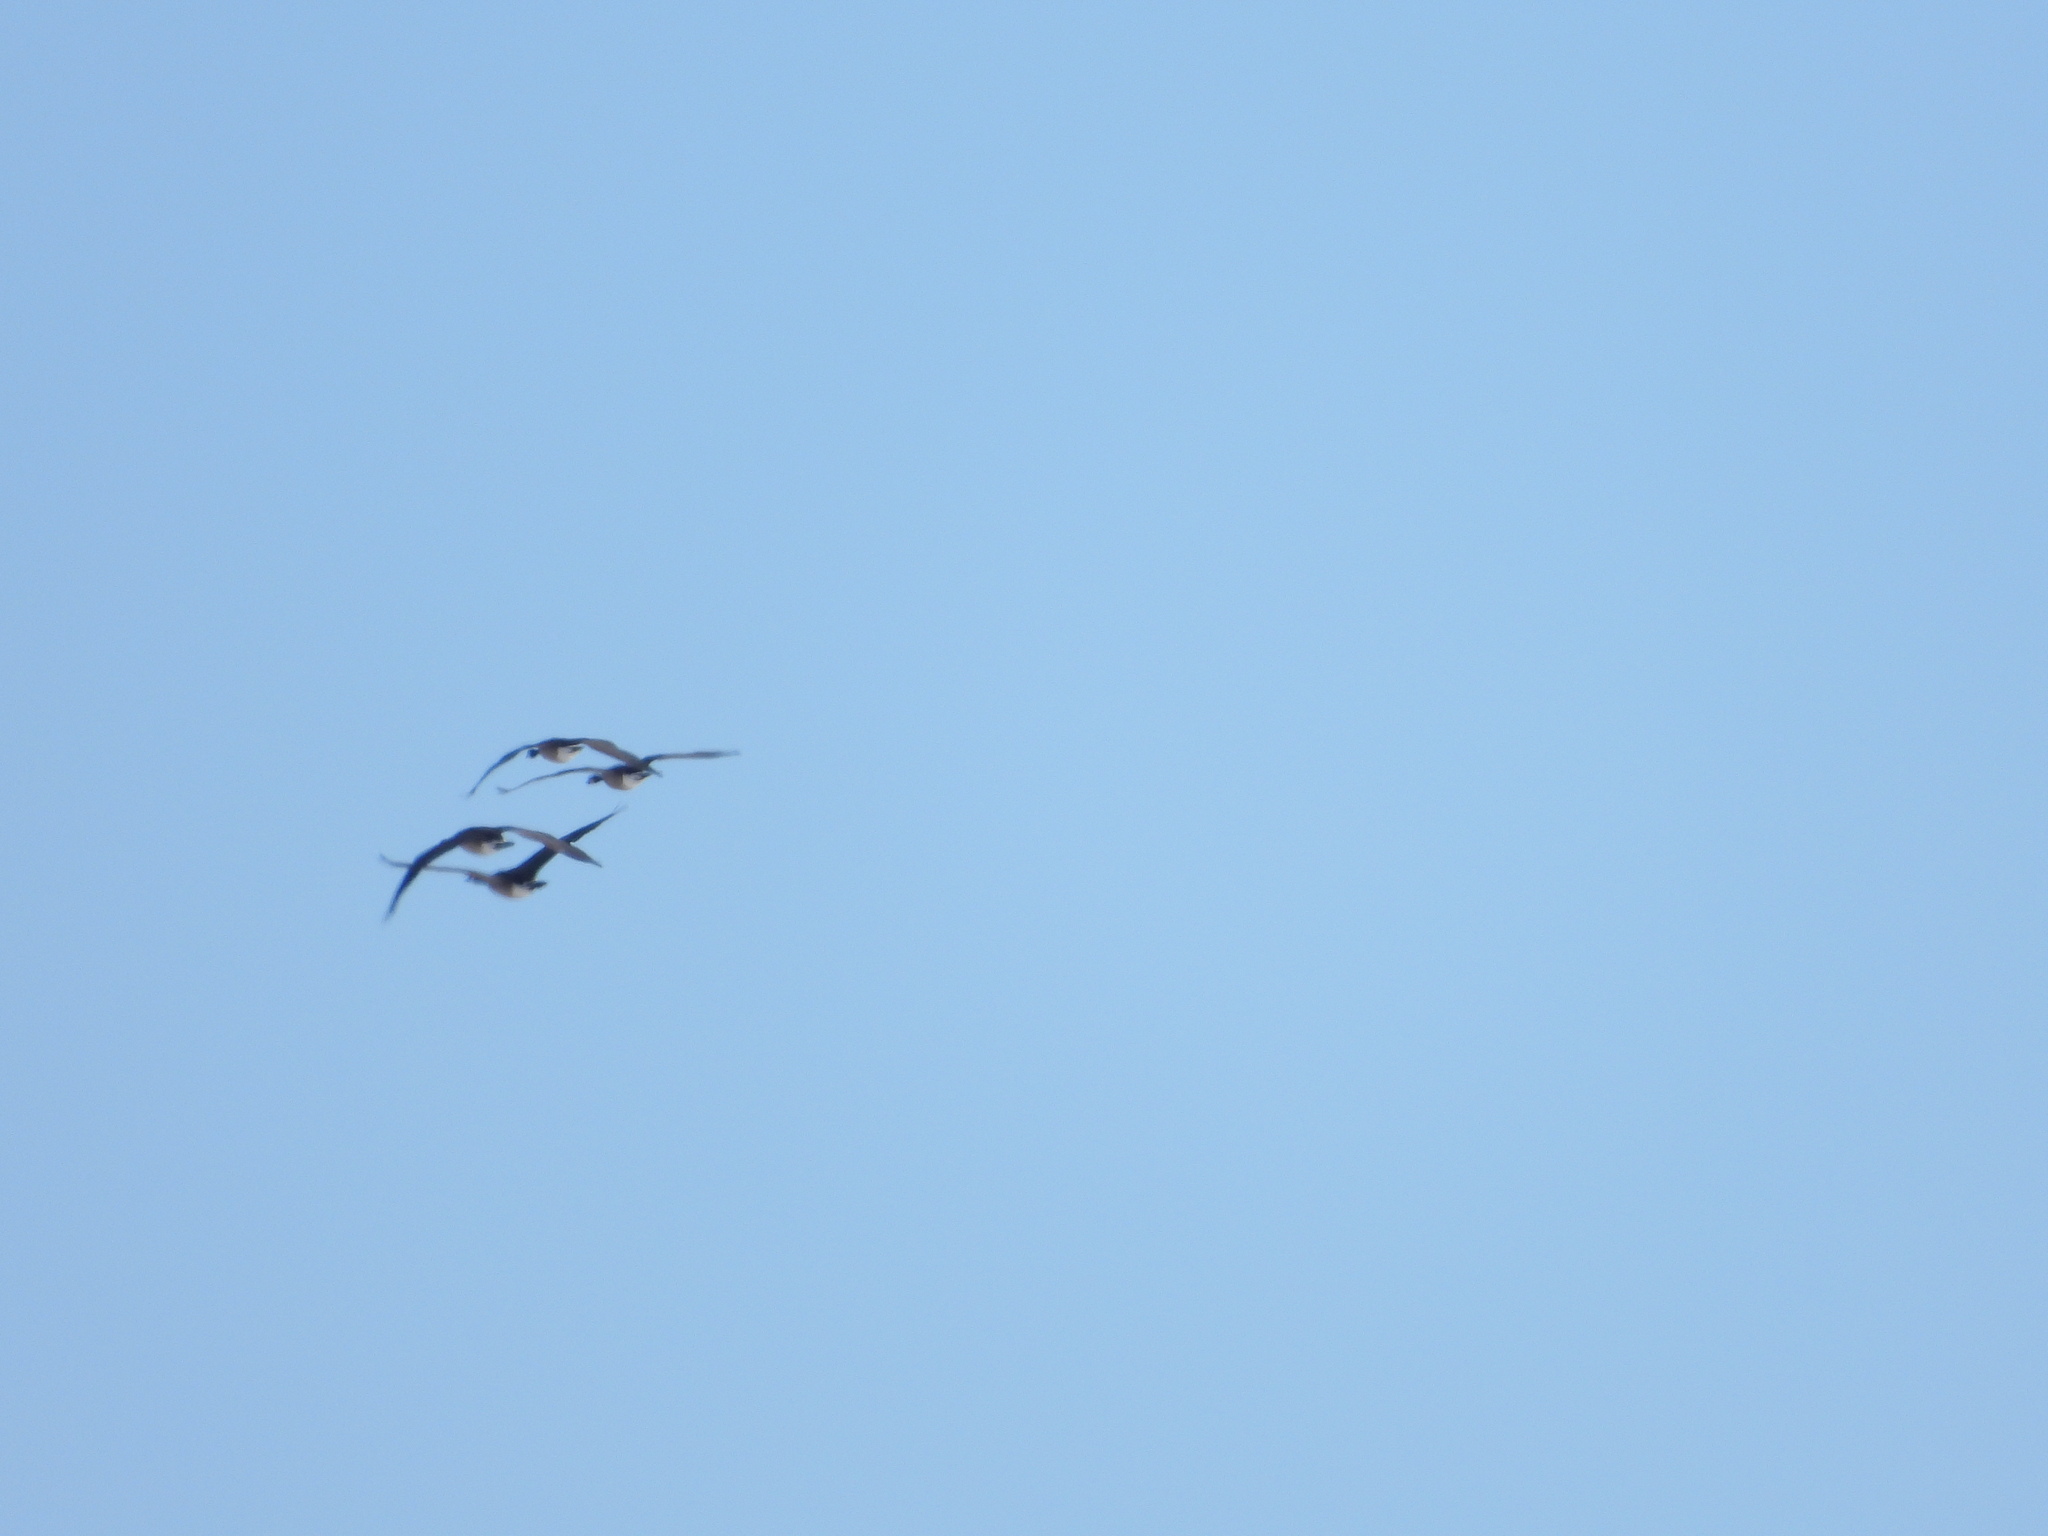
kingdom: Animalia
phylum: Chordata
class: Aves
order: Anseriformes
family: Anatidae
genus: Branta
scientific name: Branta canadensis
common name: Canada goose
